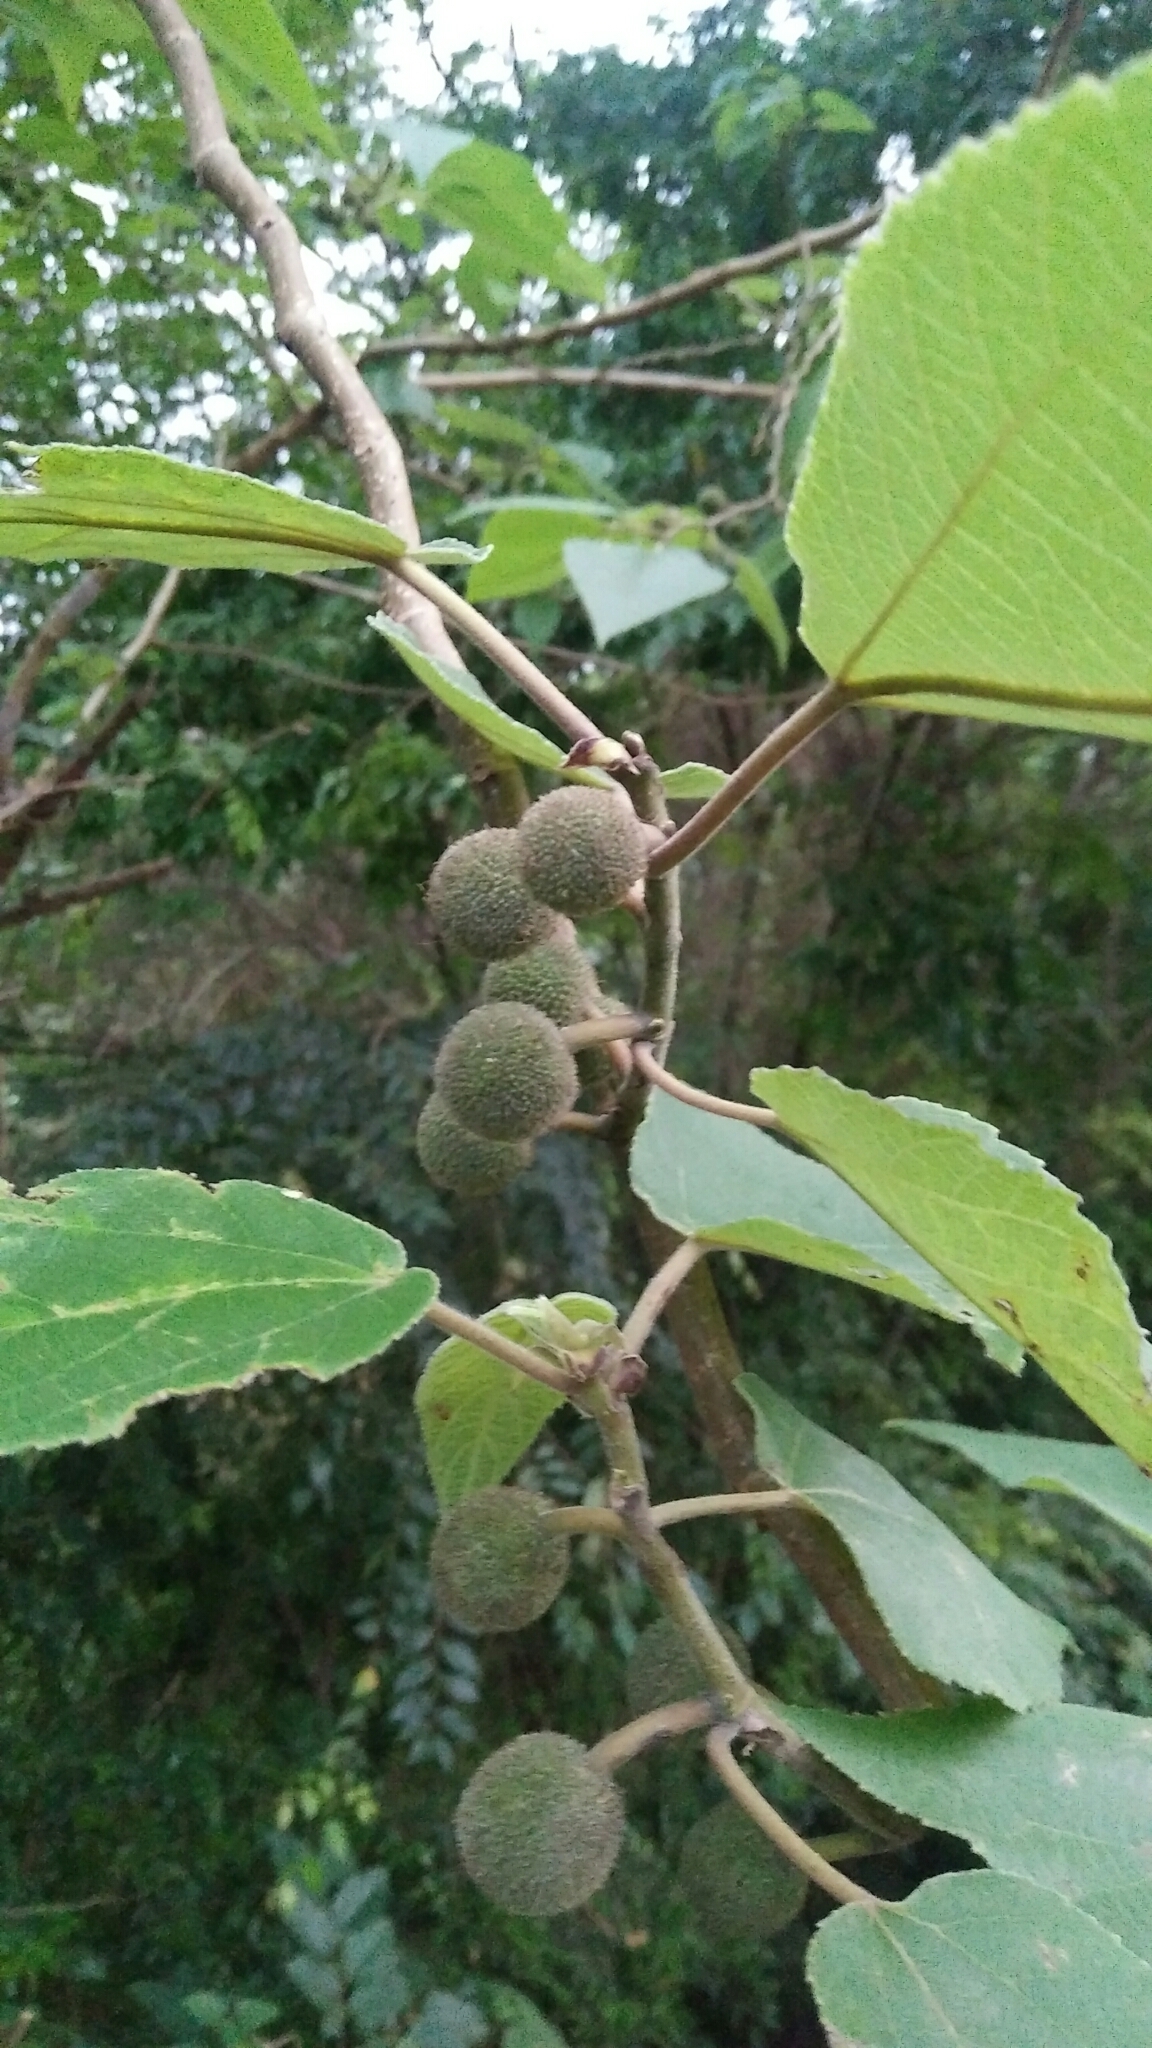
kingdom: Plantae
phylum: Tracheophyta
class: Magnoliopsida
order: Rosales
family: Moraceae
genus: Broussonetia
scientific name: Broussonetia papyrifera
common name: Paper mulberry
